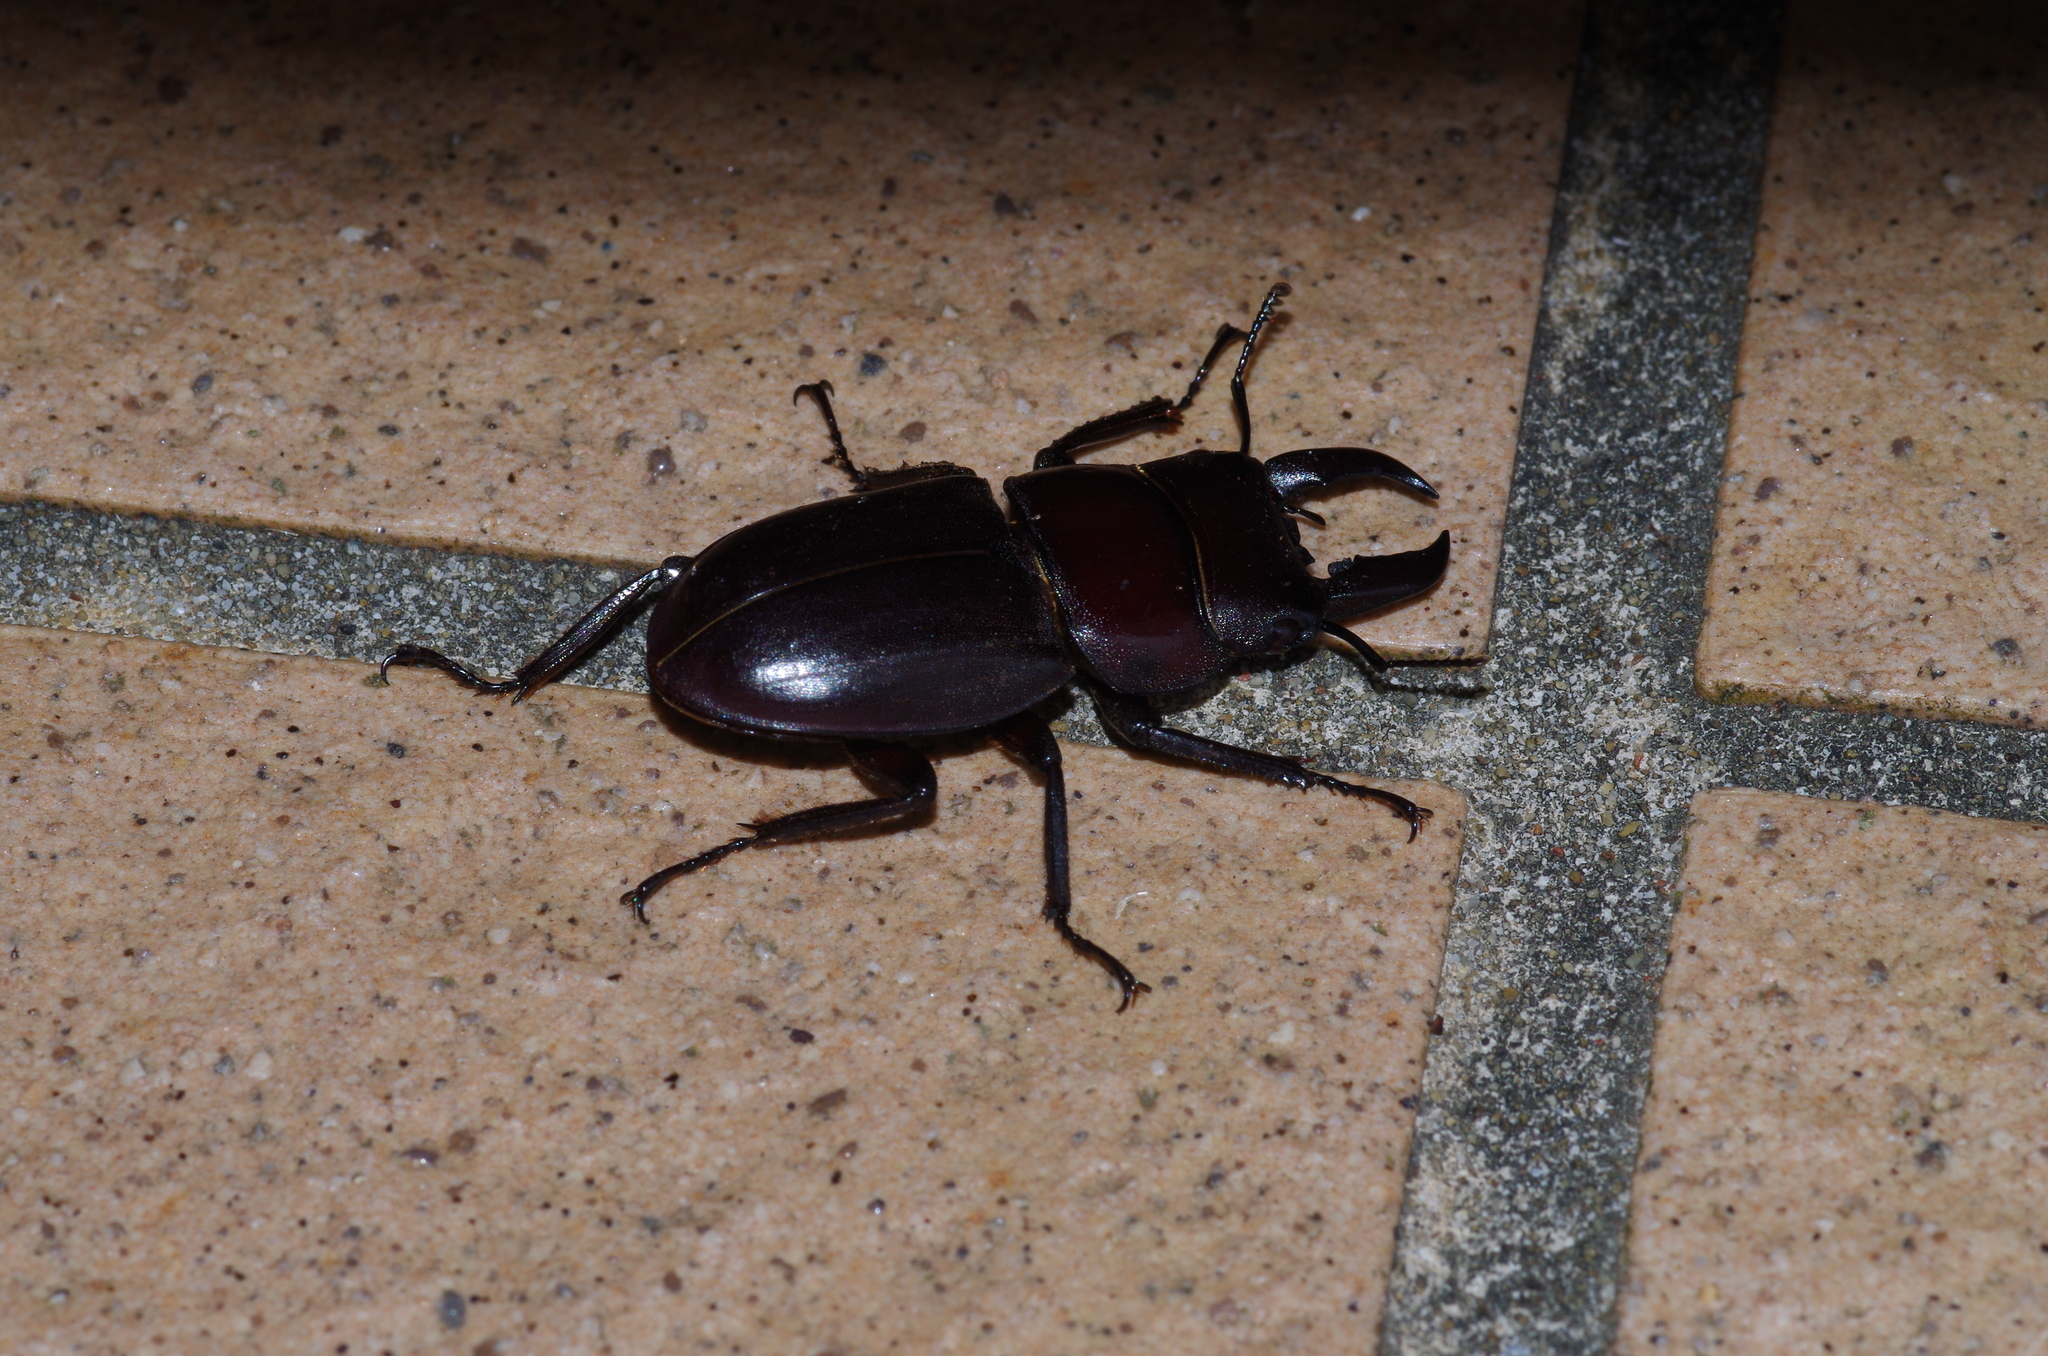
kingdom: Animalia
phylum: Arthropoda
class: Insecta
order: Coleoptera
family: Lucanidae
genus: Serrognathus
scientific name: Serrognathus titanus
